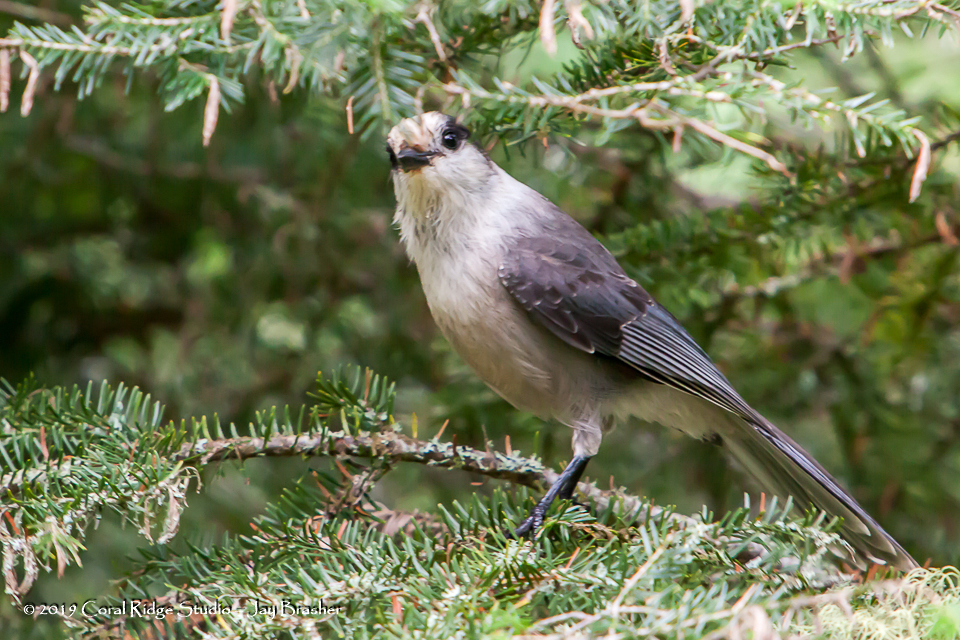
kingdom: Animalia
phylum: Chordata
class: Aves
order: Passeriformes
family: Corvidae
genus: Perisoreus
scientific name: Perisoreus canadensis
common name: Gray jay
